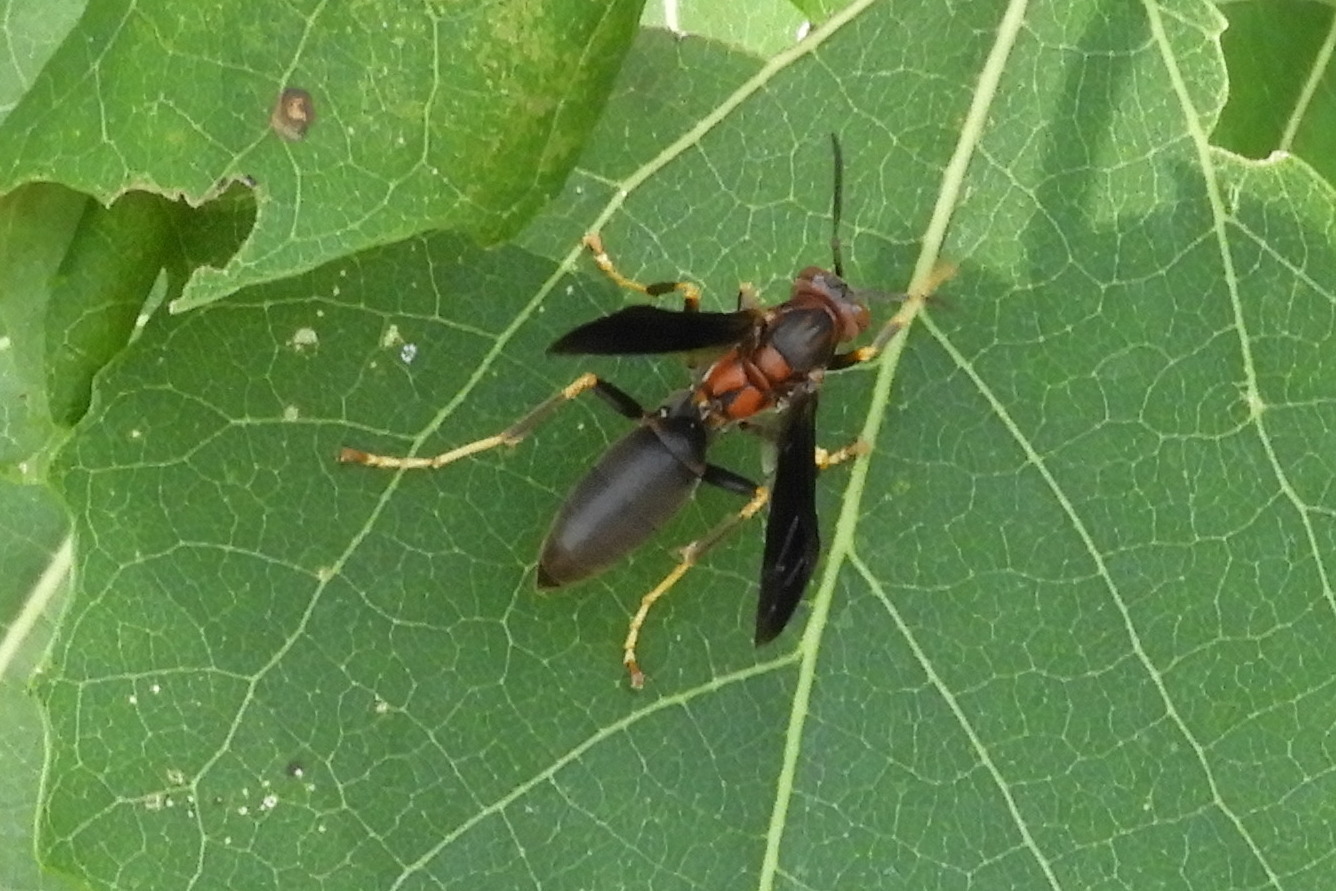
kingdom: Animalia
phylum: Arthropoda
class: Insecta
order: Hymenoptera
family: Eumenidae
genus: Polistes
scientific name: Polistes metricus
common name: Metric paper wasp
